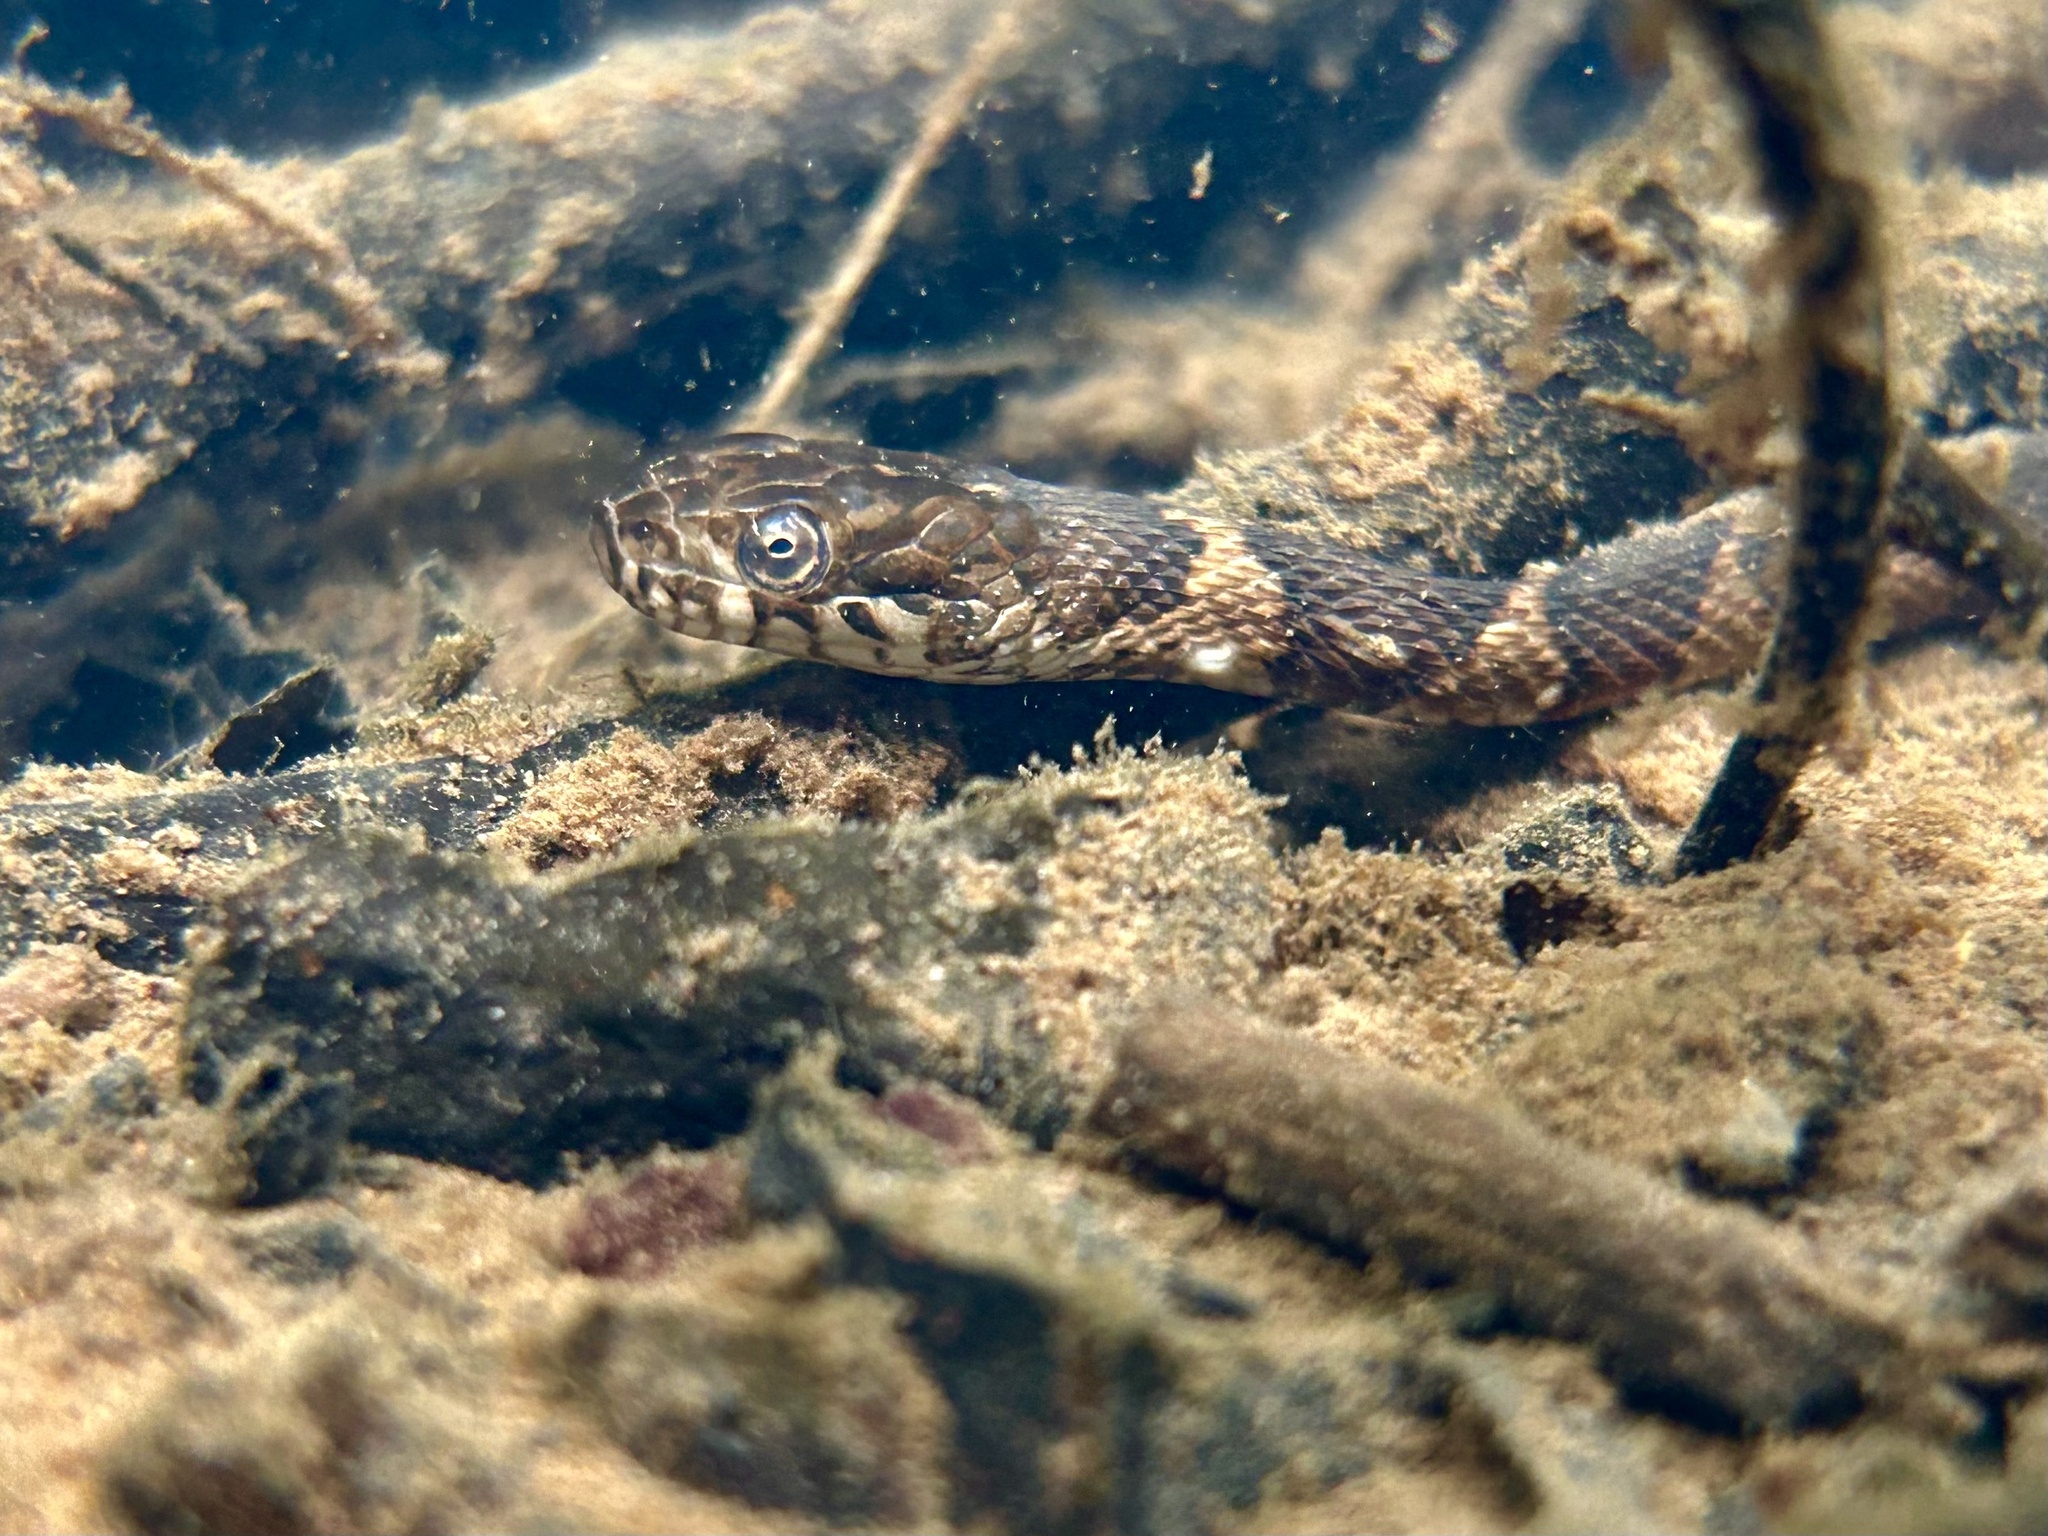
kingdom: Animalia
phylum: Chordata
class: Squamata
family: Colubridae
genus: Nerodia
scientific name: Nerodia sipedon
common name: Northern water snake
